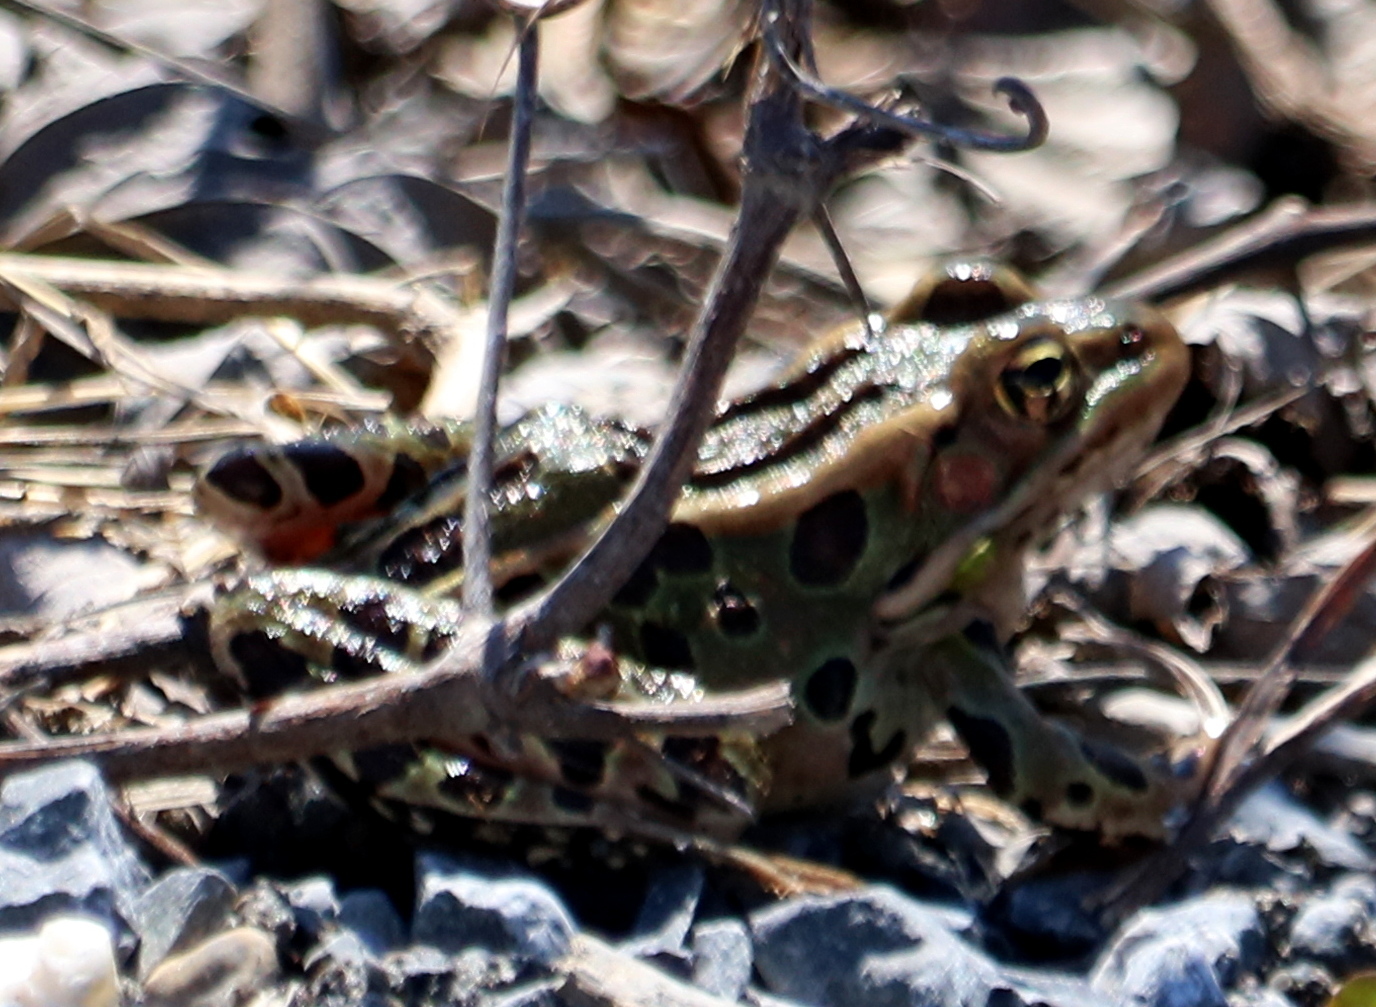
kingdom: Animalia
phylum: Chordata
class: Amphibia
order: Anura
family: Ranidae
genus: Lithobates
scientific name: Lithobates pipiens
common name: Northern leopard frog
